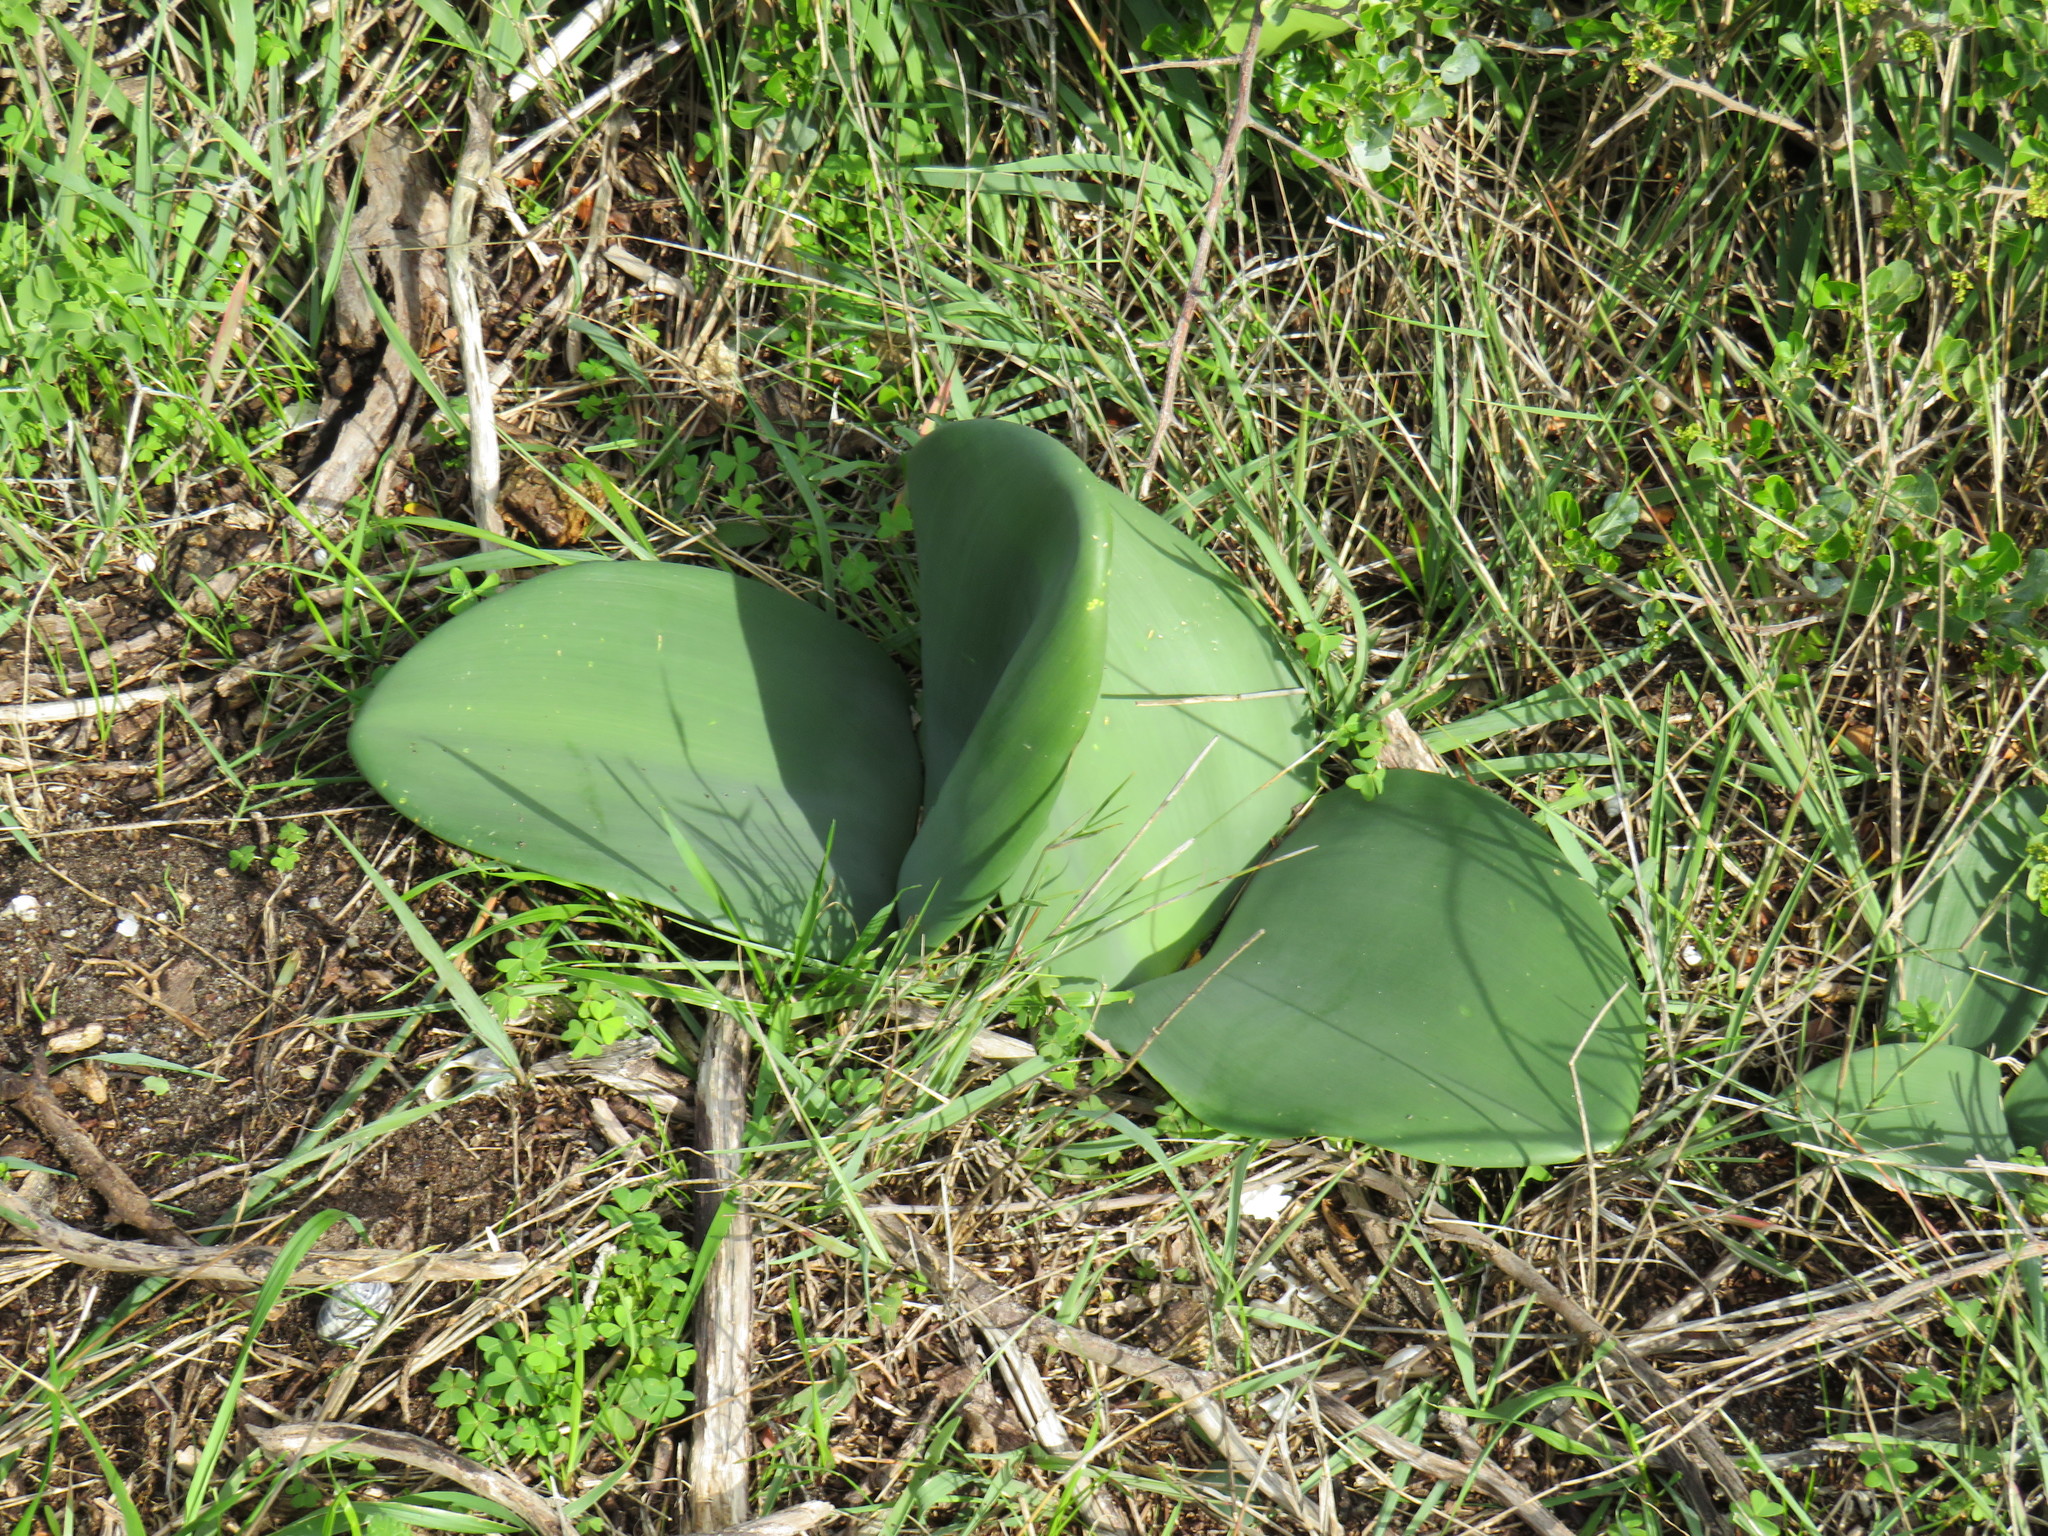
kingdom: Plantae
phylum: Tracheophyta
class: Liliopsida
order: Asparagales
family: Amaryllidaceae
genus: Haemanthus
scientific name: Haemanthus coccineus
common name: Cape-tulip
